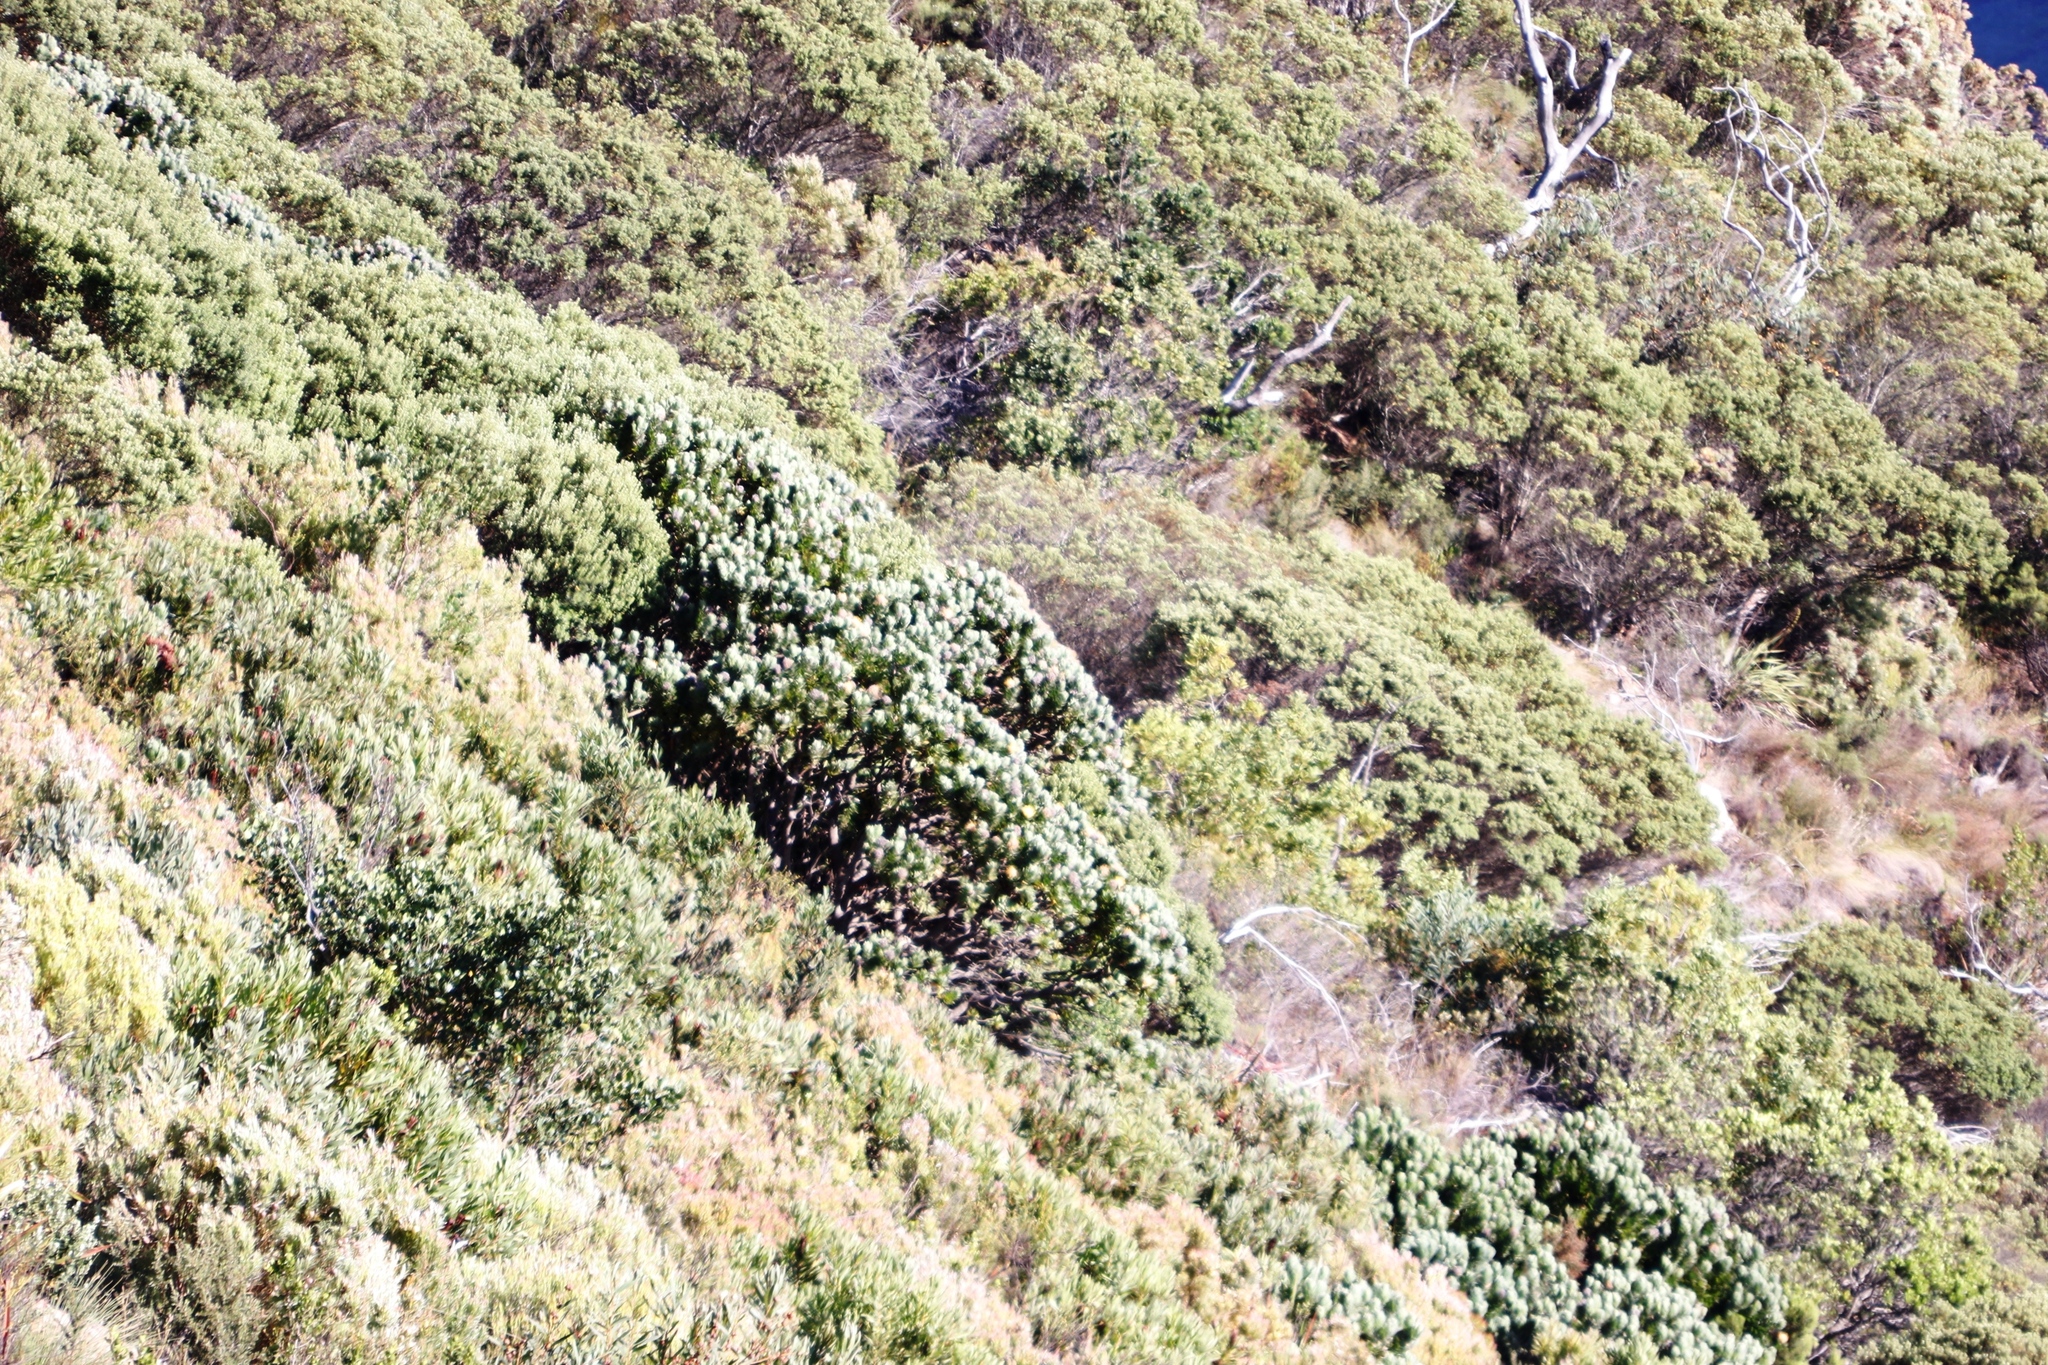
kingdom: Plantae
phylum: Tracheophyta
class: Magnoliopsida
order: Proteales
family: Proteaceae
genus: Leucospermum
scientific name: Leucospermum conocarpodendron
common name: Tree pincushion
